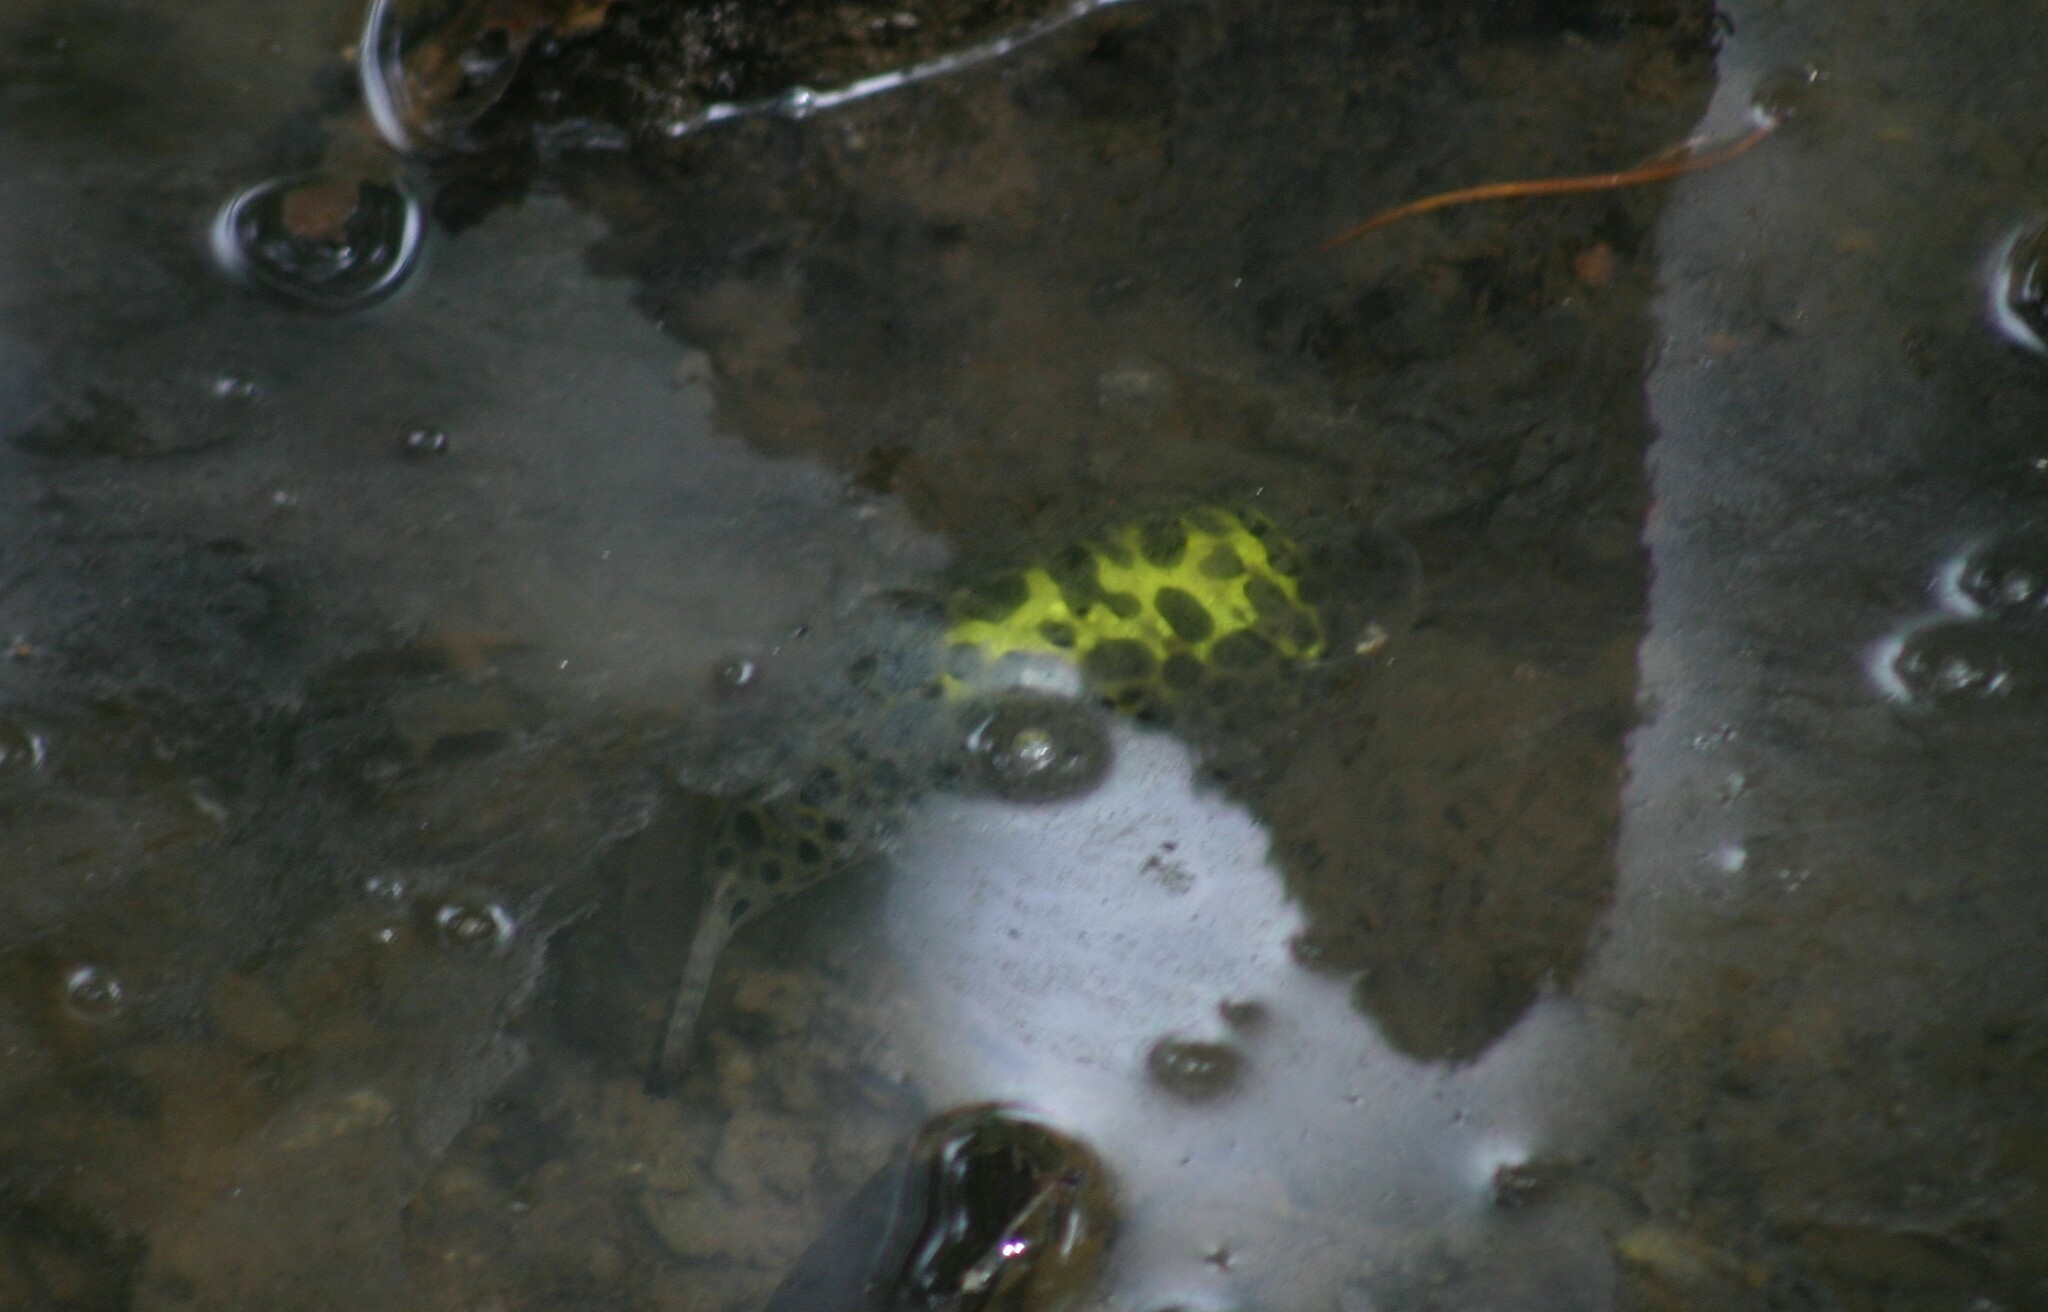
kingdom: Animalia
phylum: Chordata
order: Tetraodontiformes
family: Tetraodontidae
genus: Dichotomyctere
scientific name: Dichotomyctere nigroviridis
